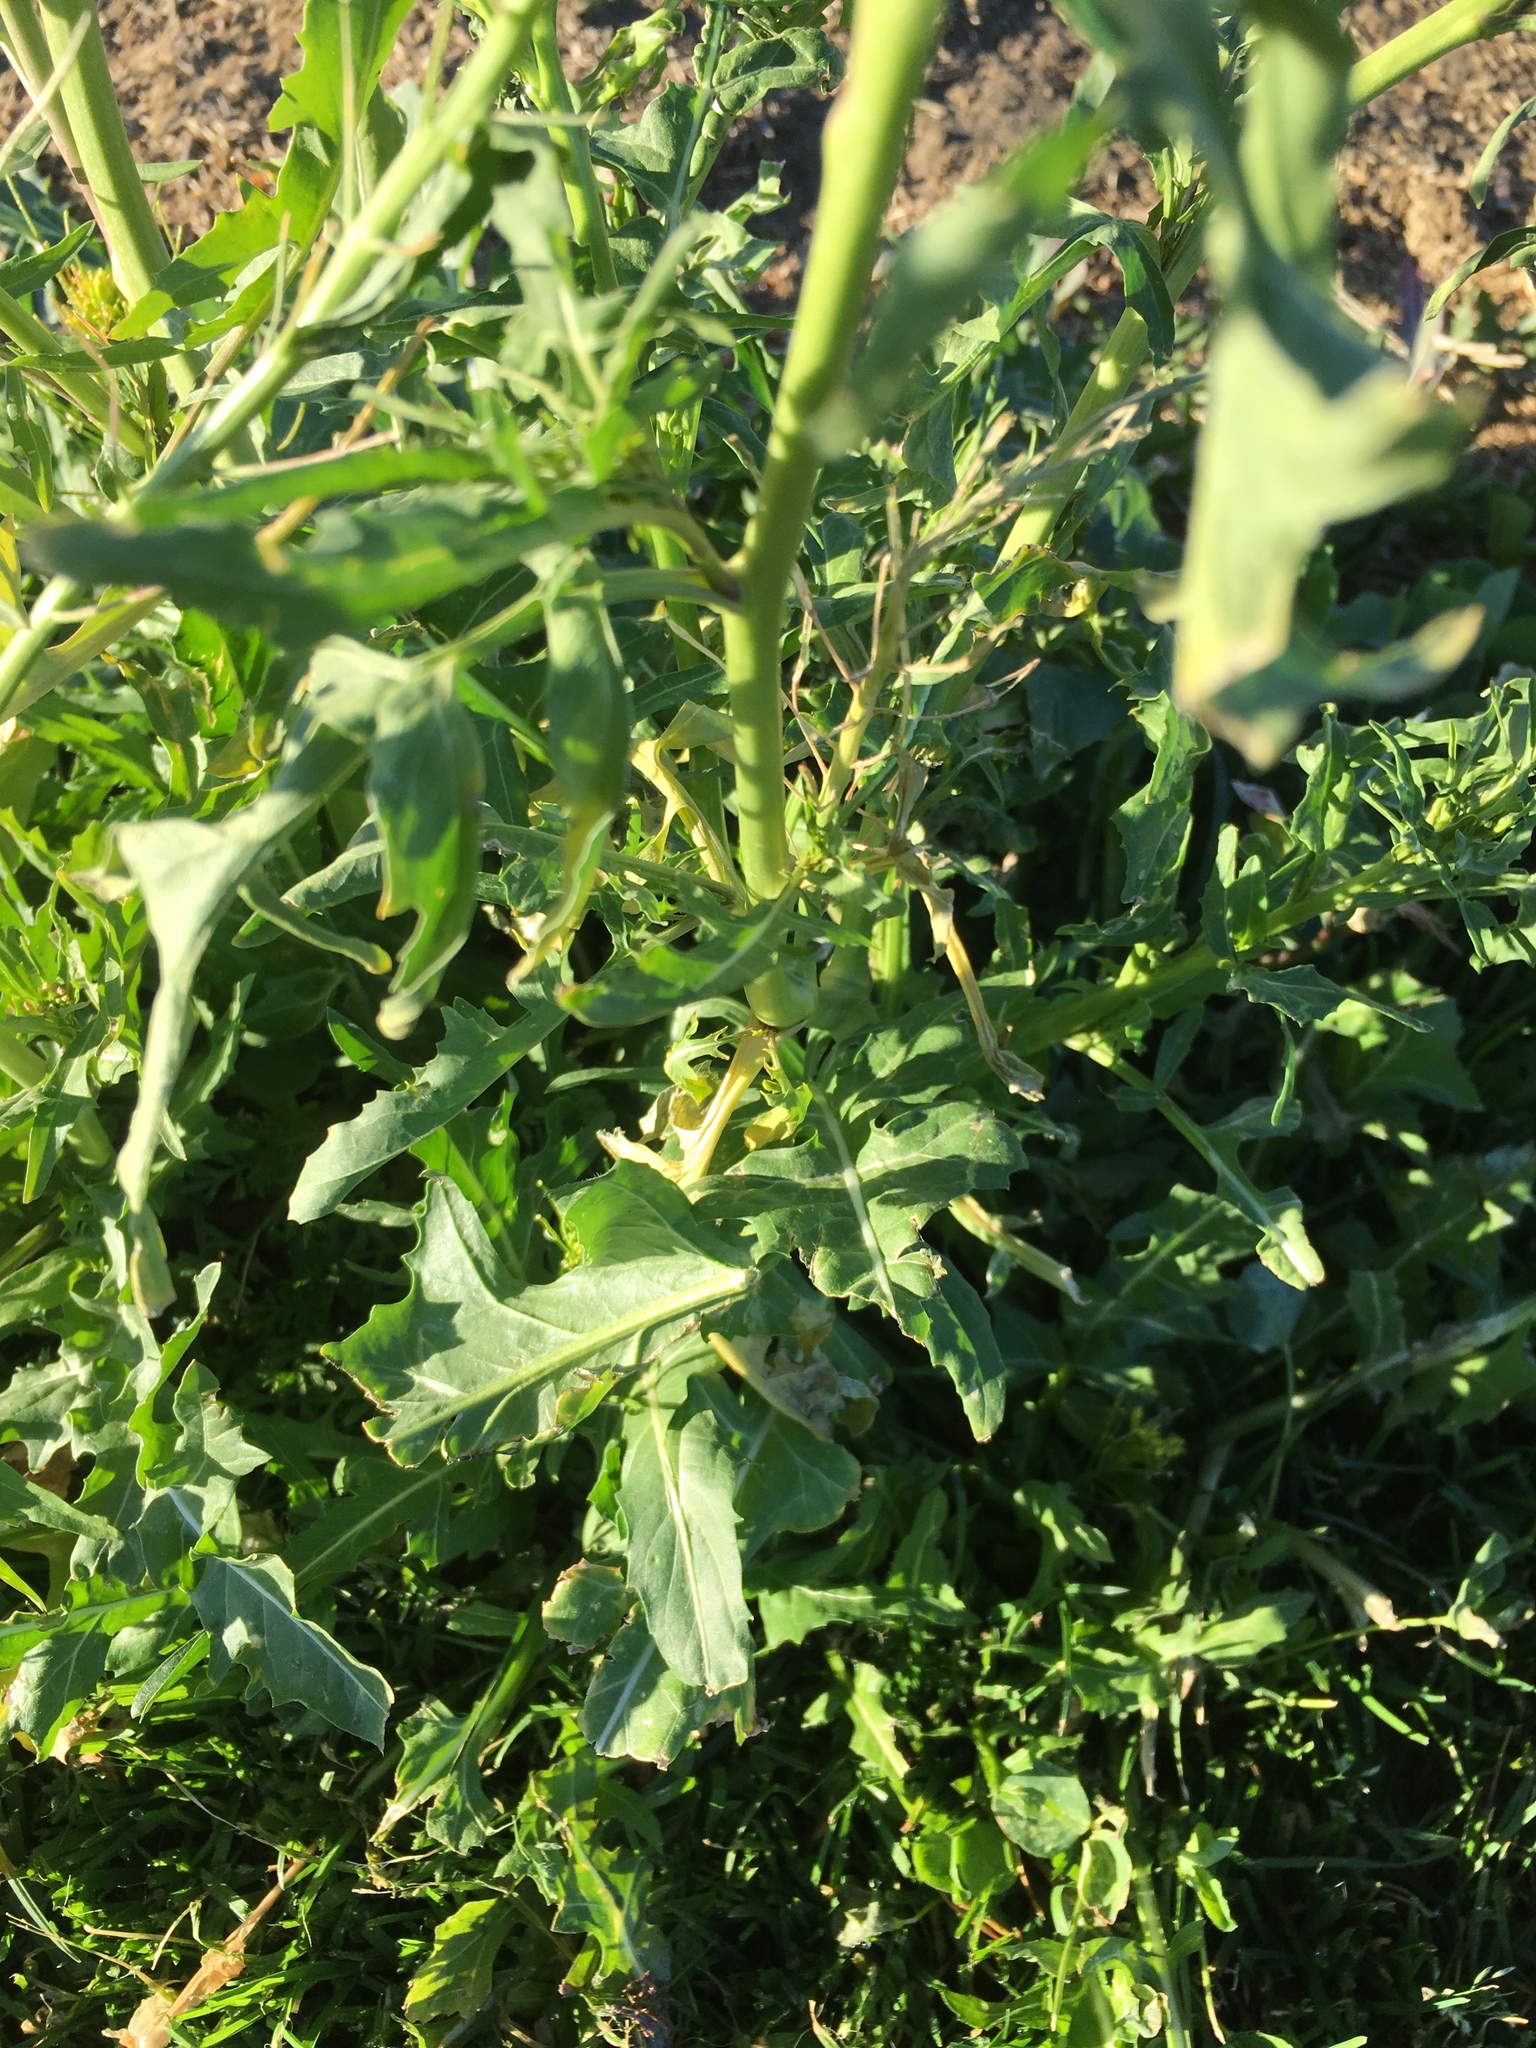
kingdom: Plantae
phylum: Tracheophyta
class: Magnoliopsida
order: Brassicales
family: Brassicaceae
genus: Sisymbrium
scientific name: Sisymbrium irio
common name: London rocket
